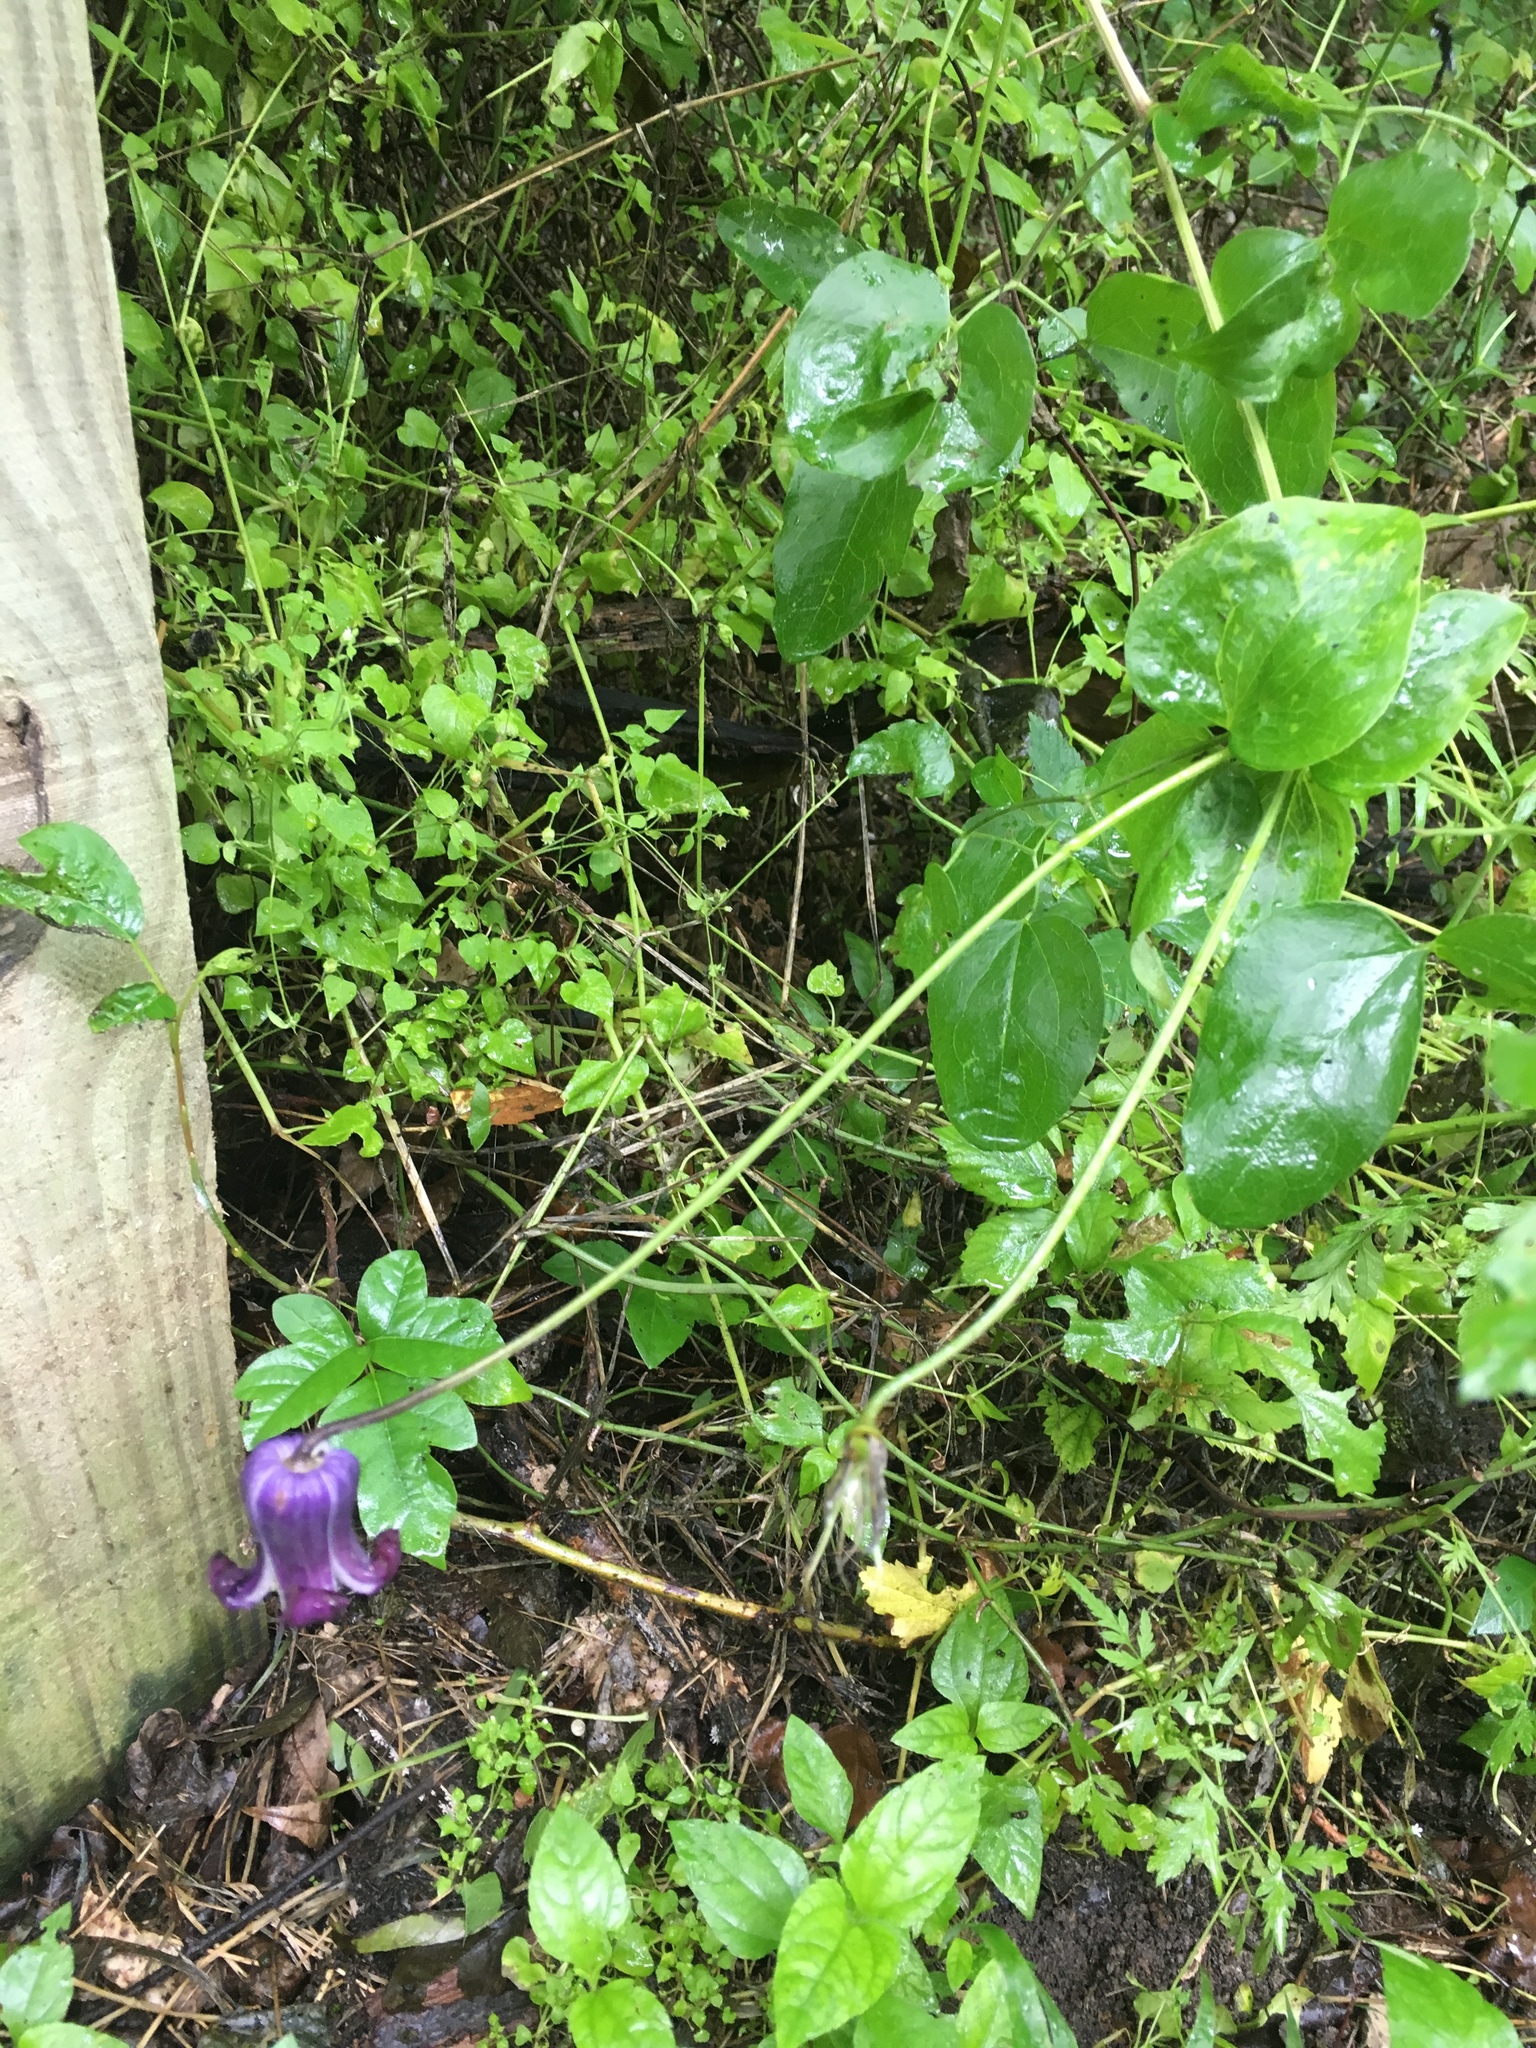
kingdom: Plantae
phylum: Tracheophyta
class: Magnoliopsida
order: Ranunculales
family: Ranunculaceae
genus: Clematis
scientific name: Clematis pitcheri
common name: Bellflower clematis
